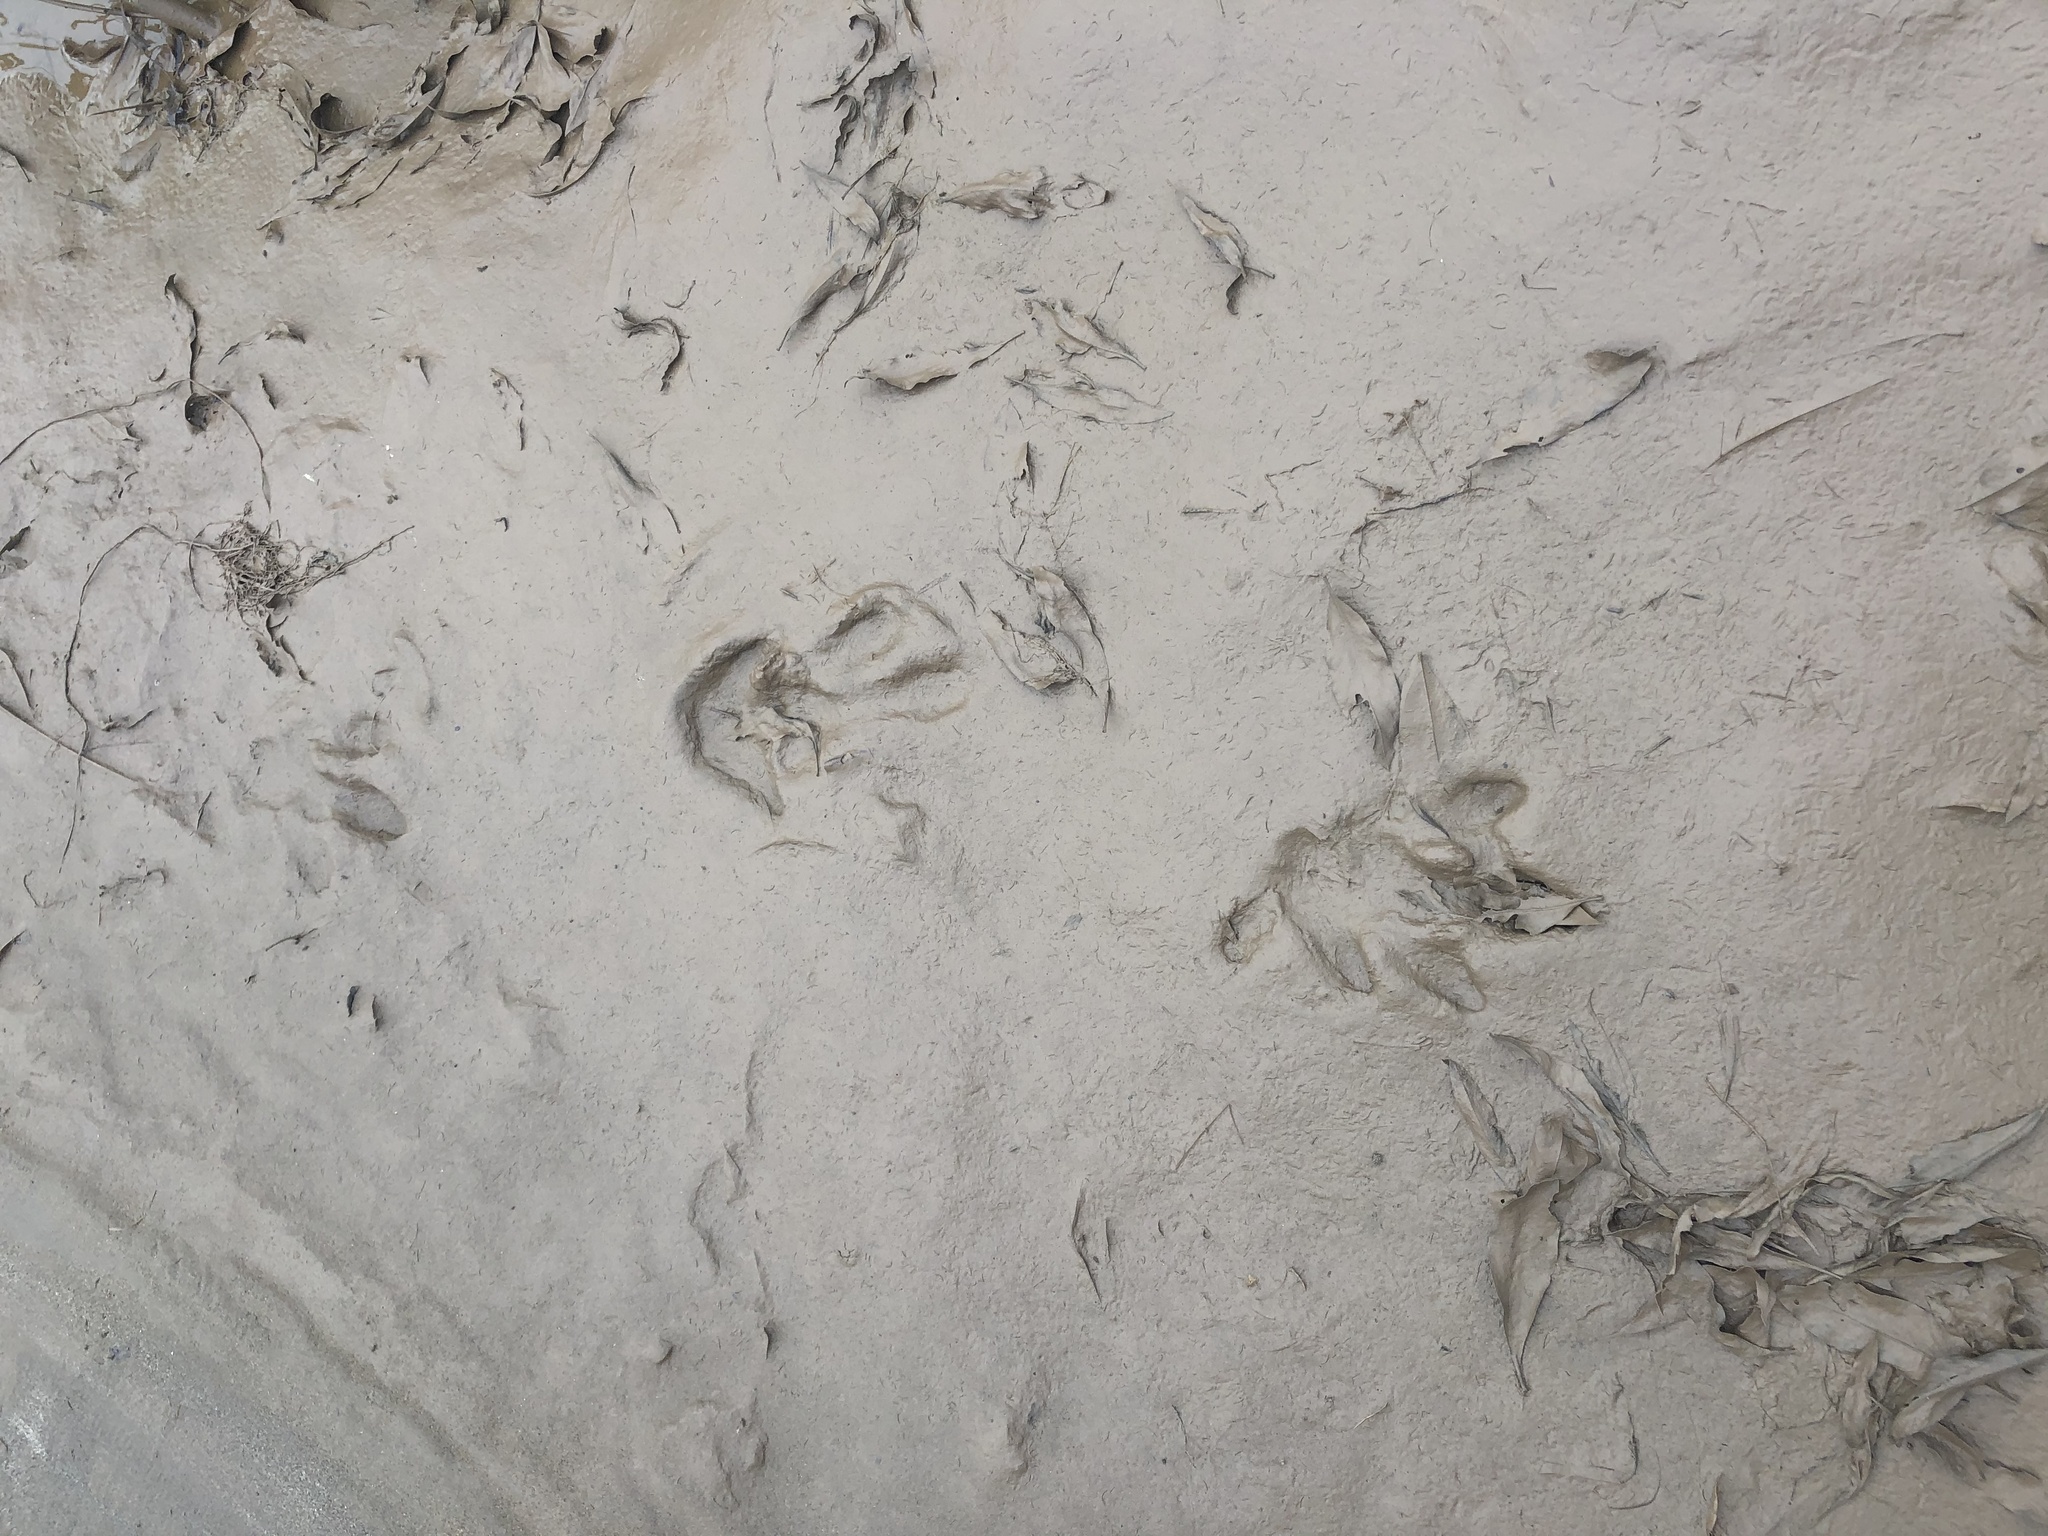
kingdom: Animalia
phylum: Chordata
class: Mammalia
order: Perissodactyla
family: Tapiridae
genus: Tapirus
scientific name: Tapirus terrestris
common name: Brazilian tapir
